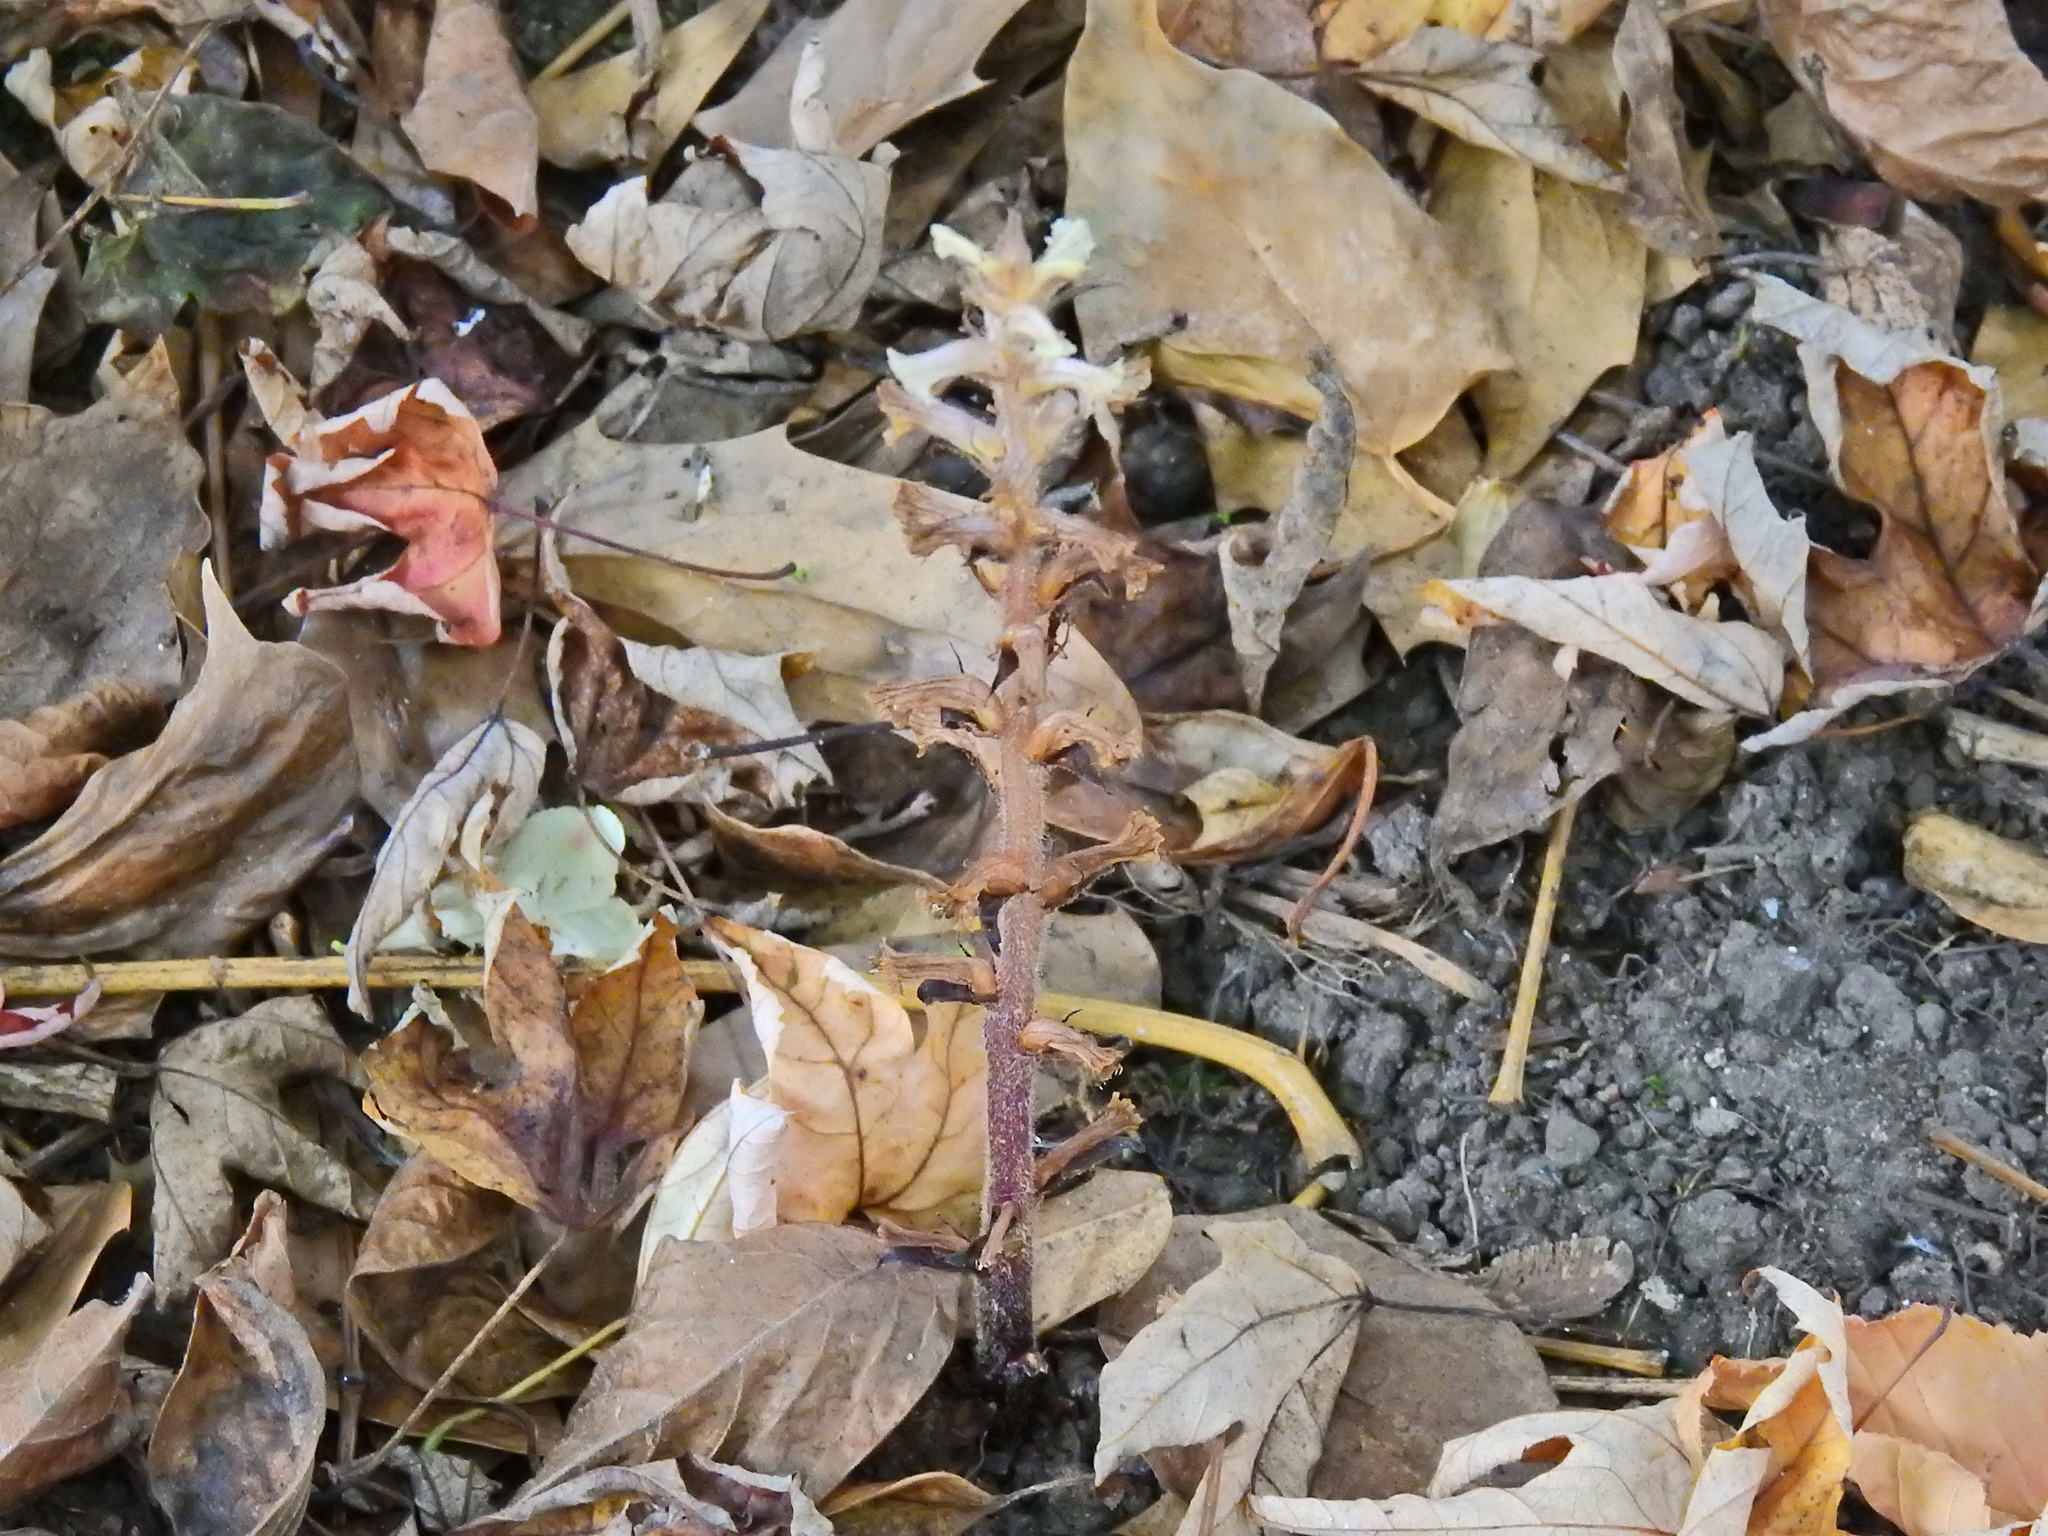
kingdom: Plantae
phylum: Tracheophyta
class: Magnoliopsida
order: Lamiales
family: Orobanchaceae
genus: Orobanche
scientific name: Orobanche hederae
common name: Ivy broomrape
